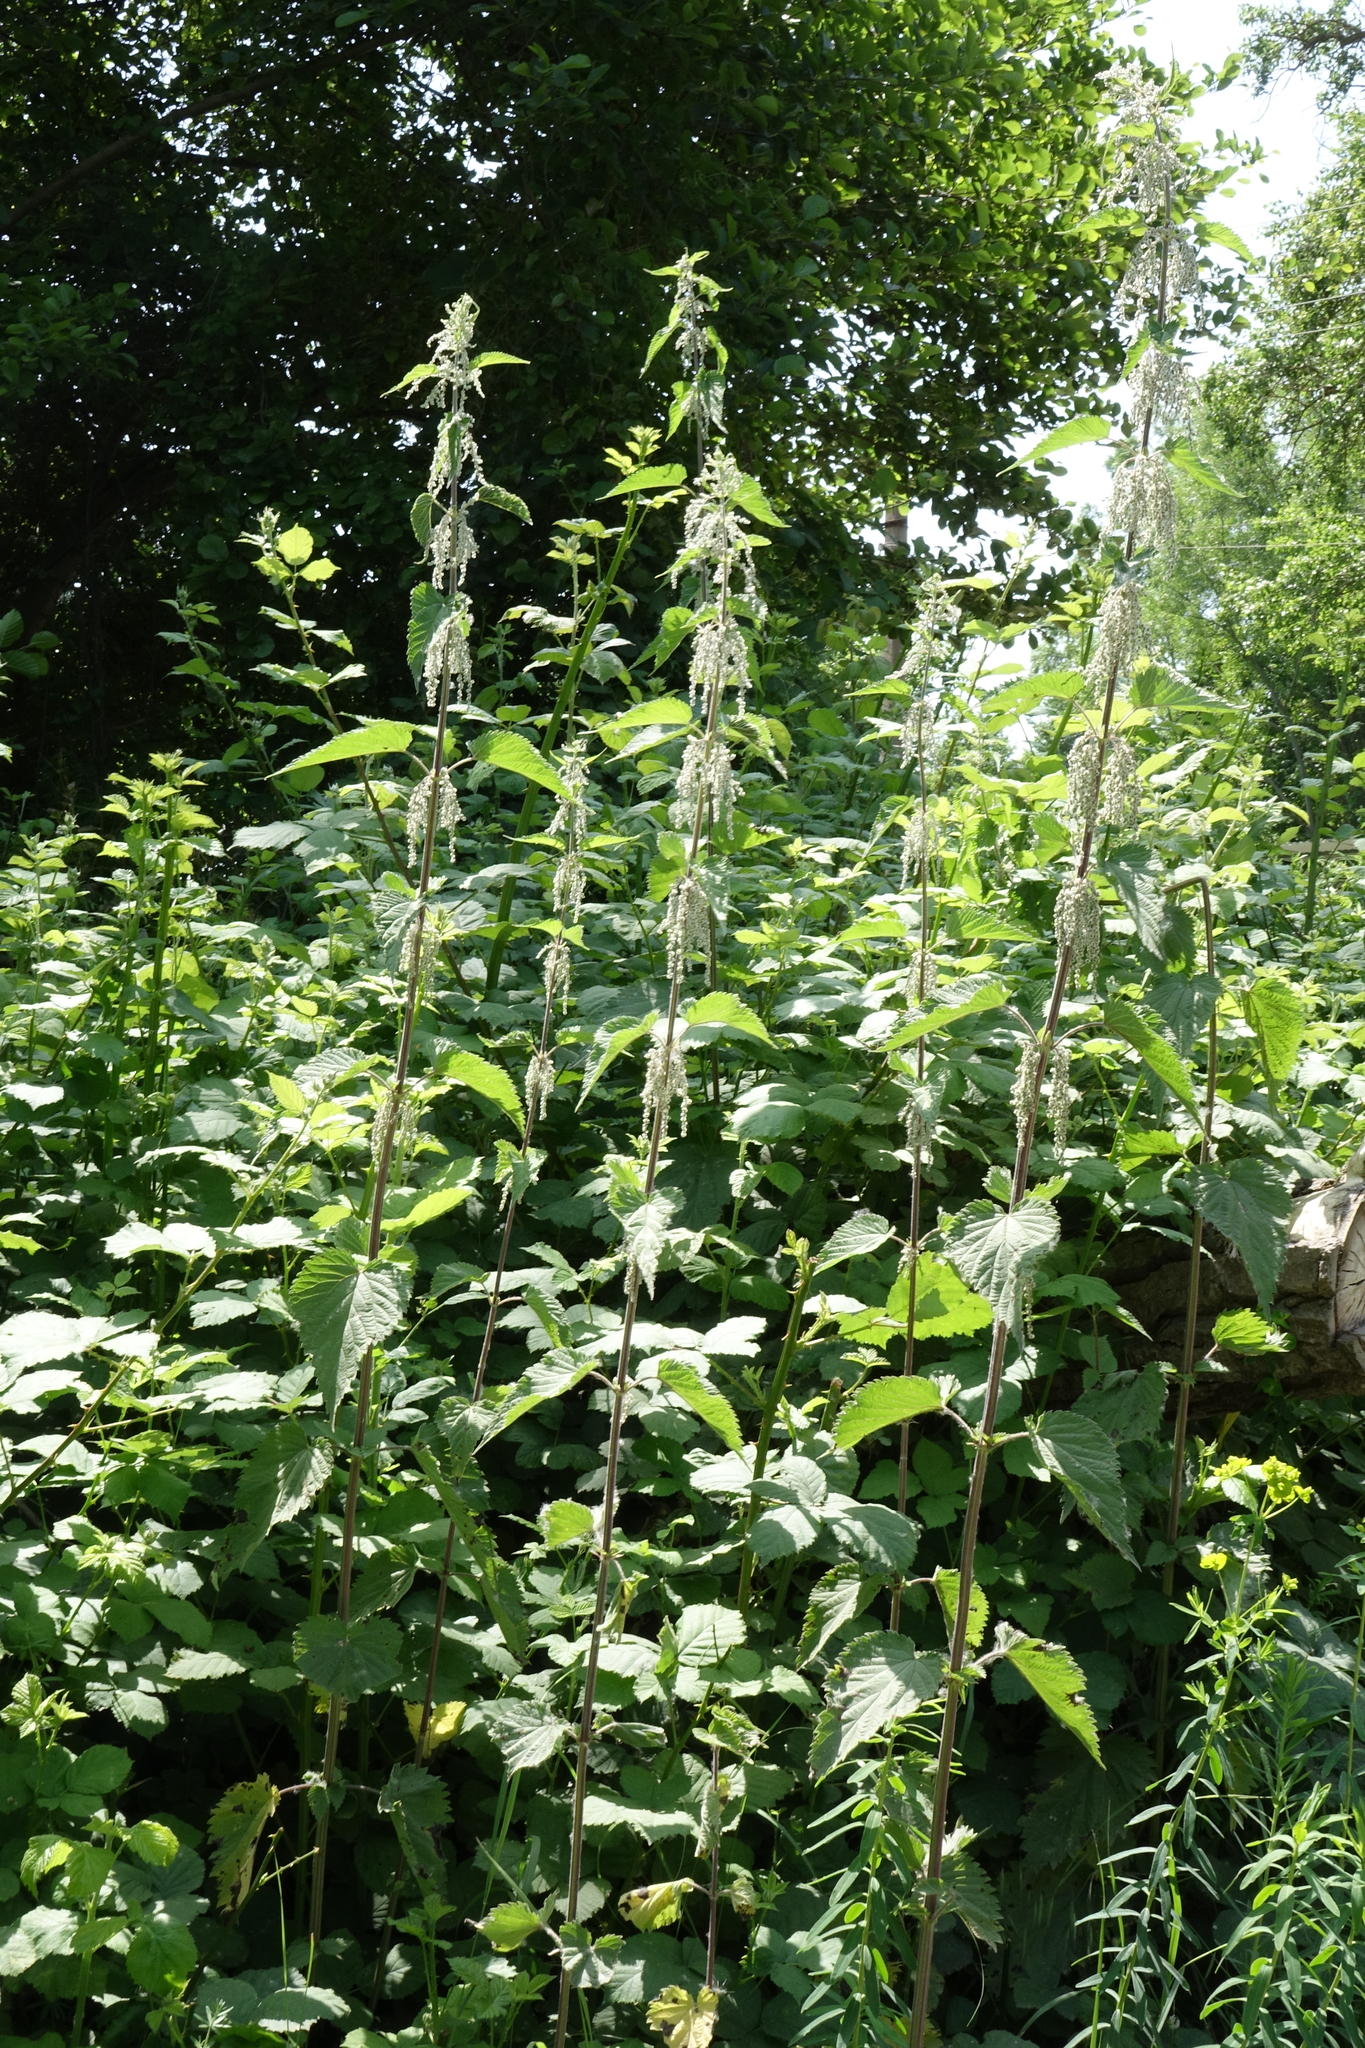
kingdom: Plantae
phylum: Tracheophyta
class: Magnoliopsida
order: Rosales
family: Urticaceae
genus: Urtica
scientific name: Urtica dioica
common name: Common nettle
